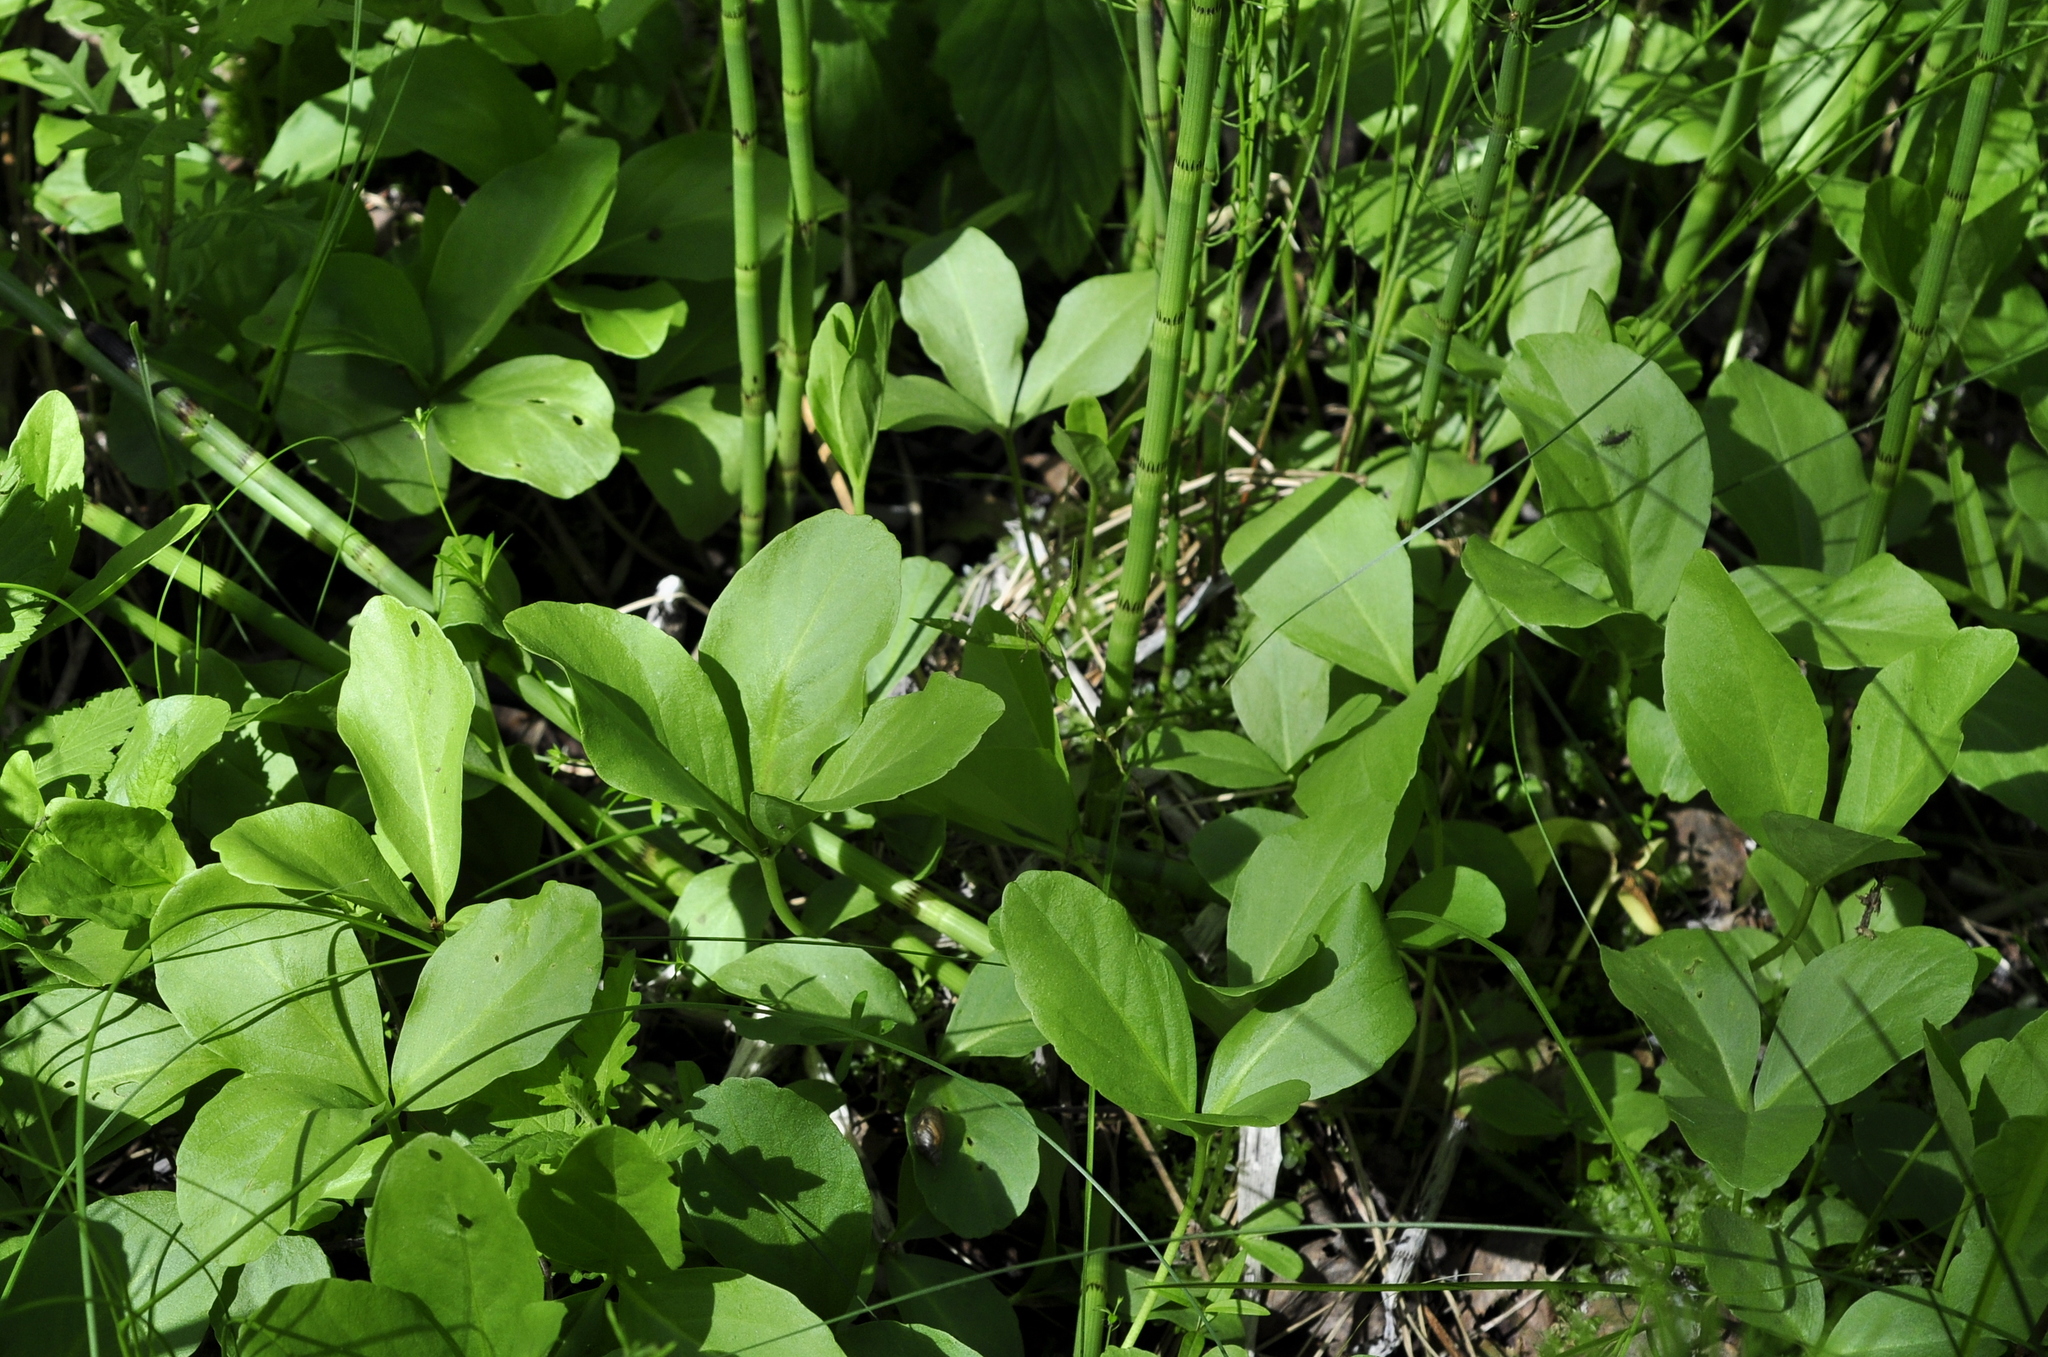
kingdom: Plantae
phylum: Tracheophyta
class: Magnoliopsida
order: Asterales
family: Menyanthaceae
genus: Menyanthes
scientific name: Menyanthes trifoliata
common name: Bogbean
